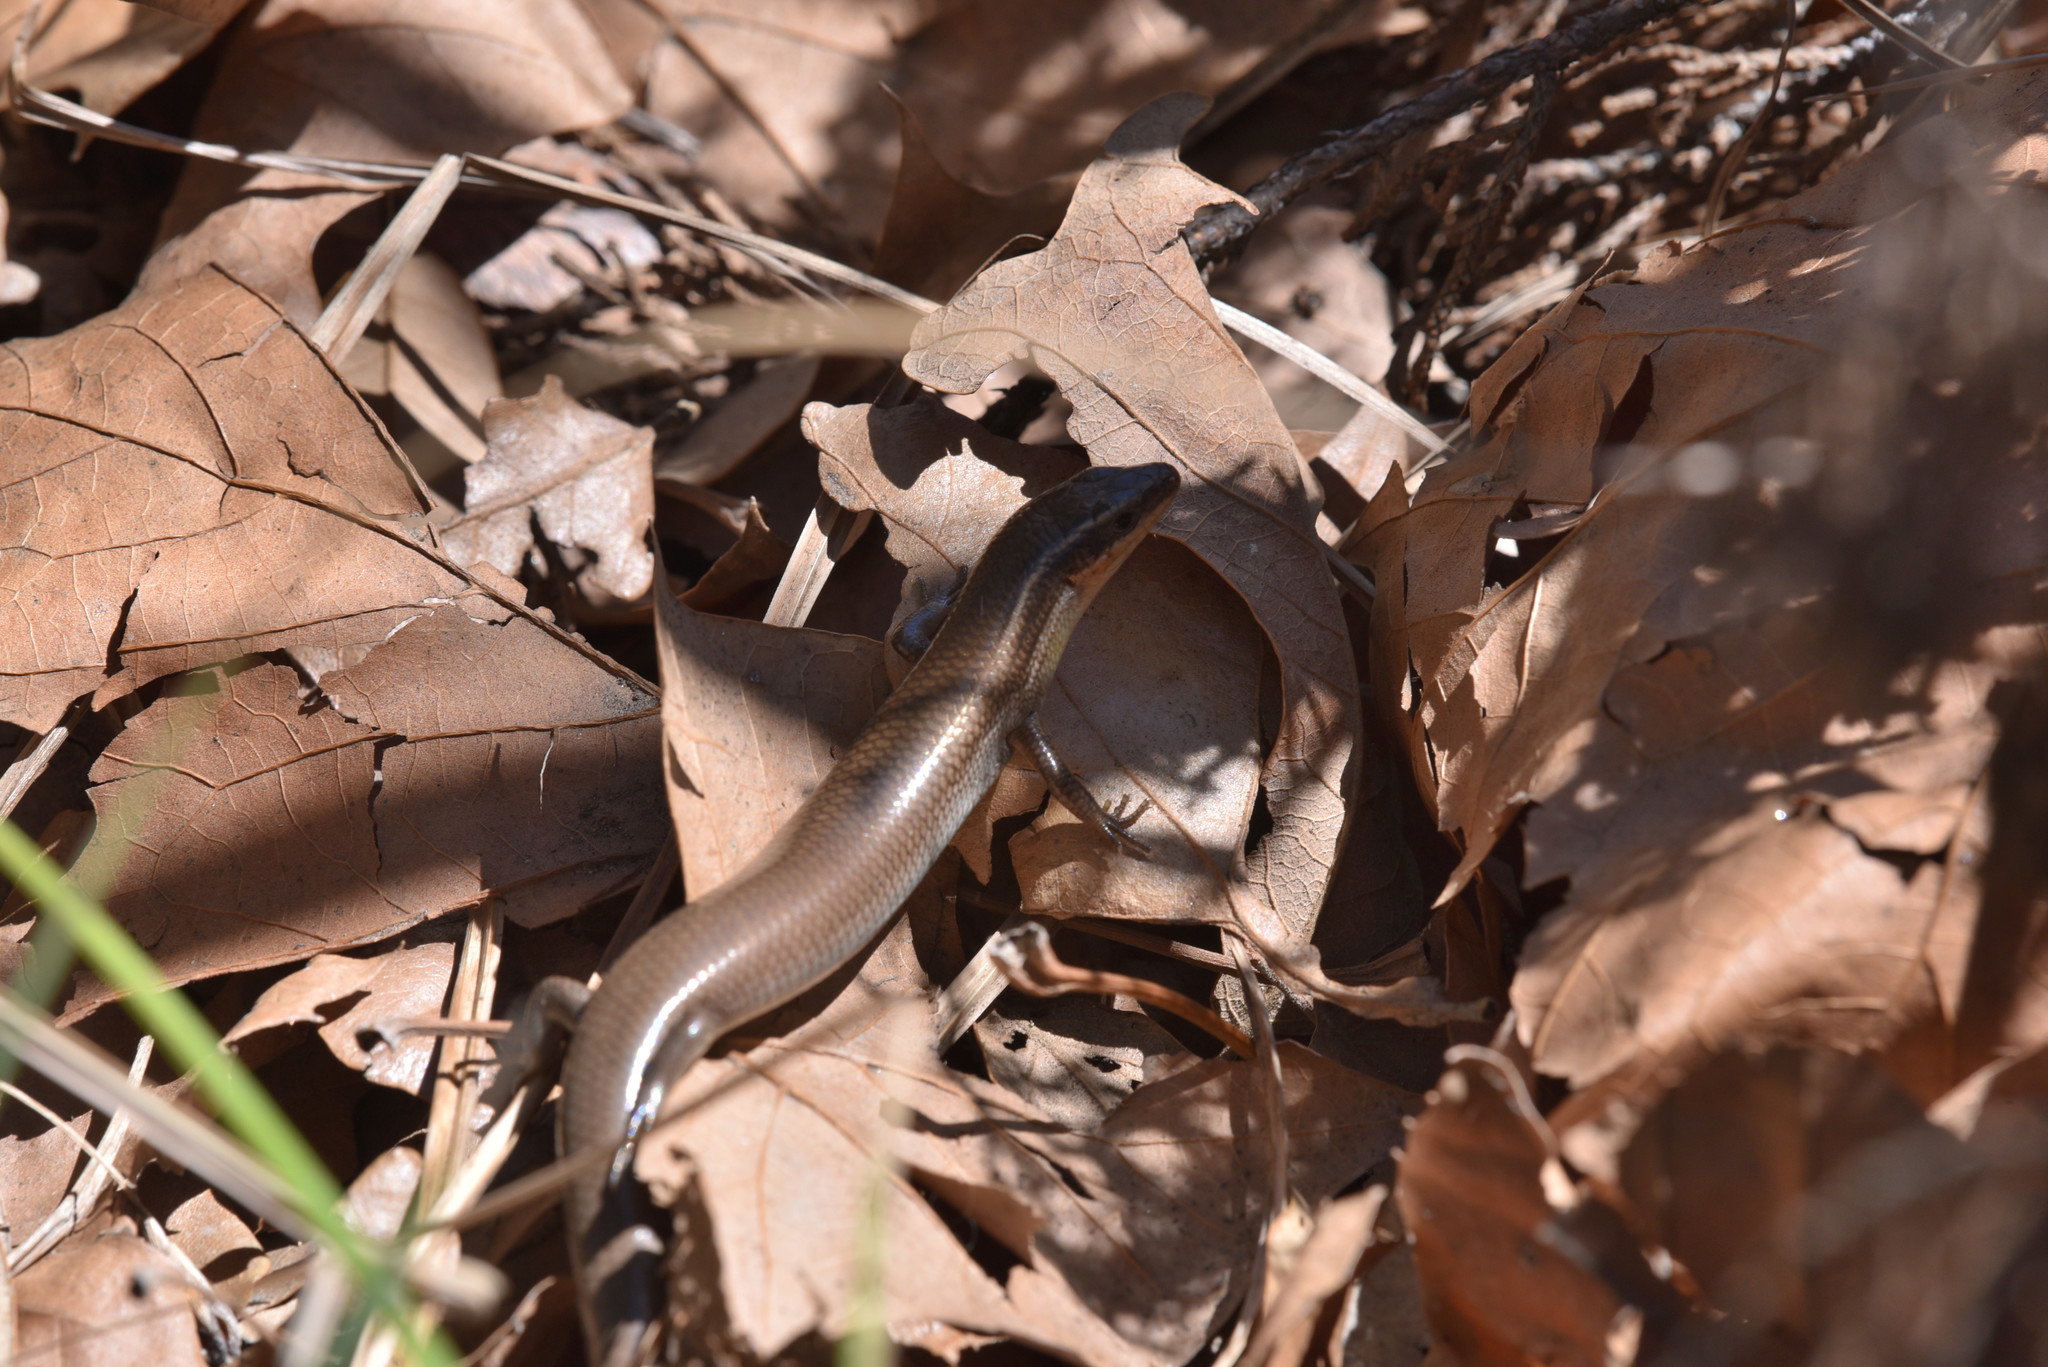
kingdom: Animalia
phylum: Chordata
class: Squamata
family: Scincidae
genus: Plestiodon
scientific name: Plestiodon tetragrammus
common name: Four-lined skink
